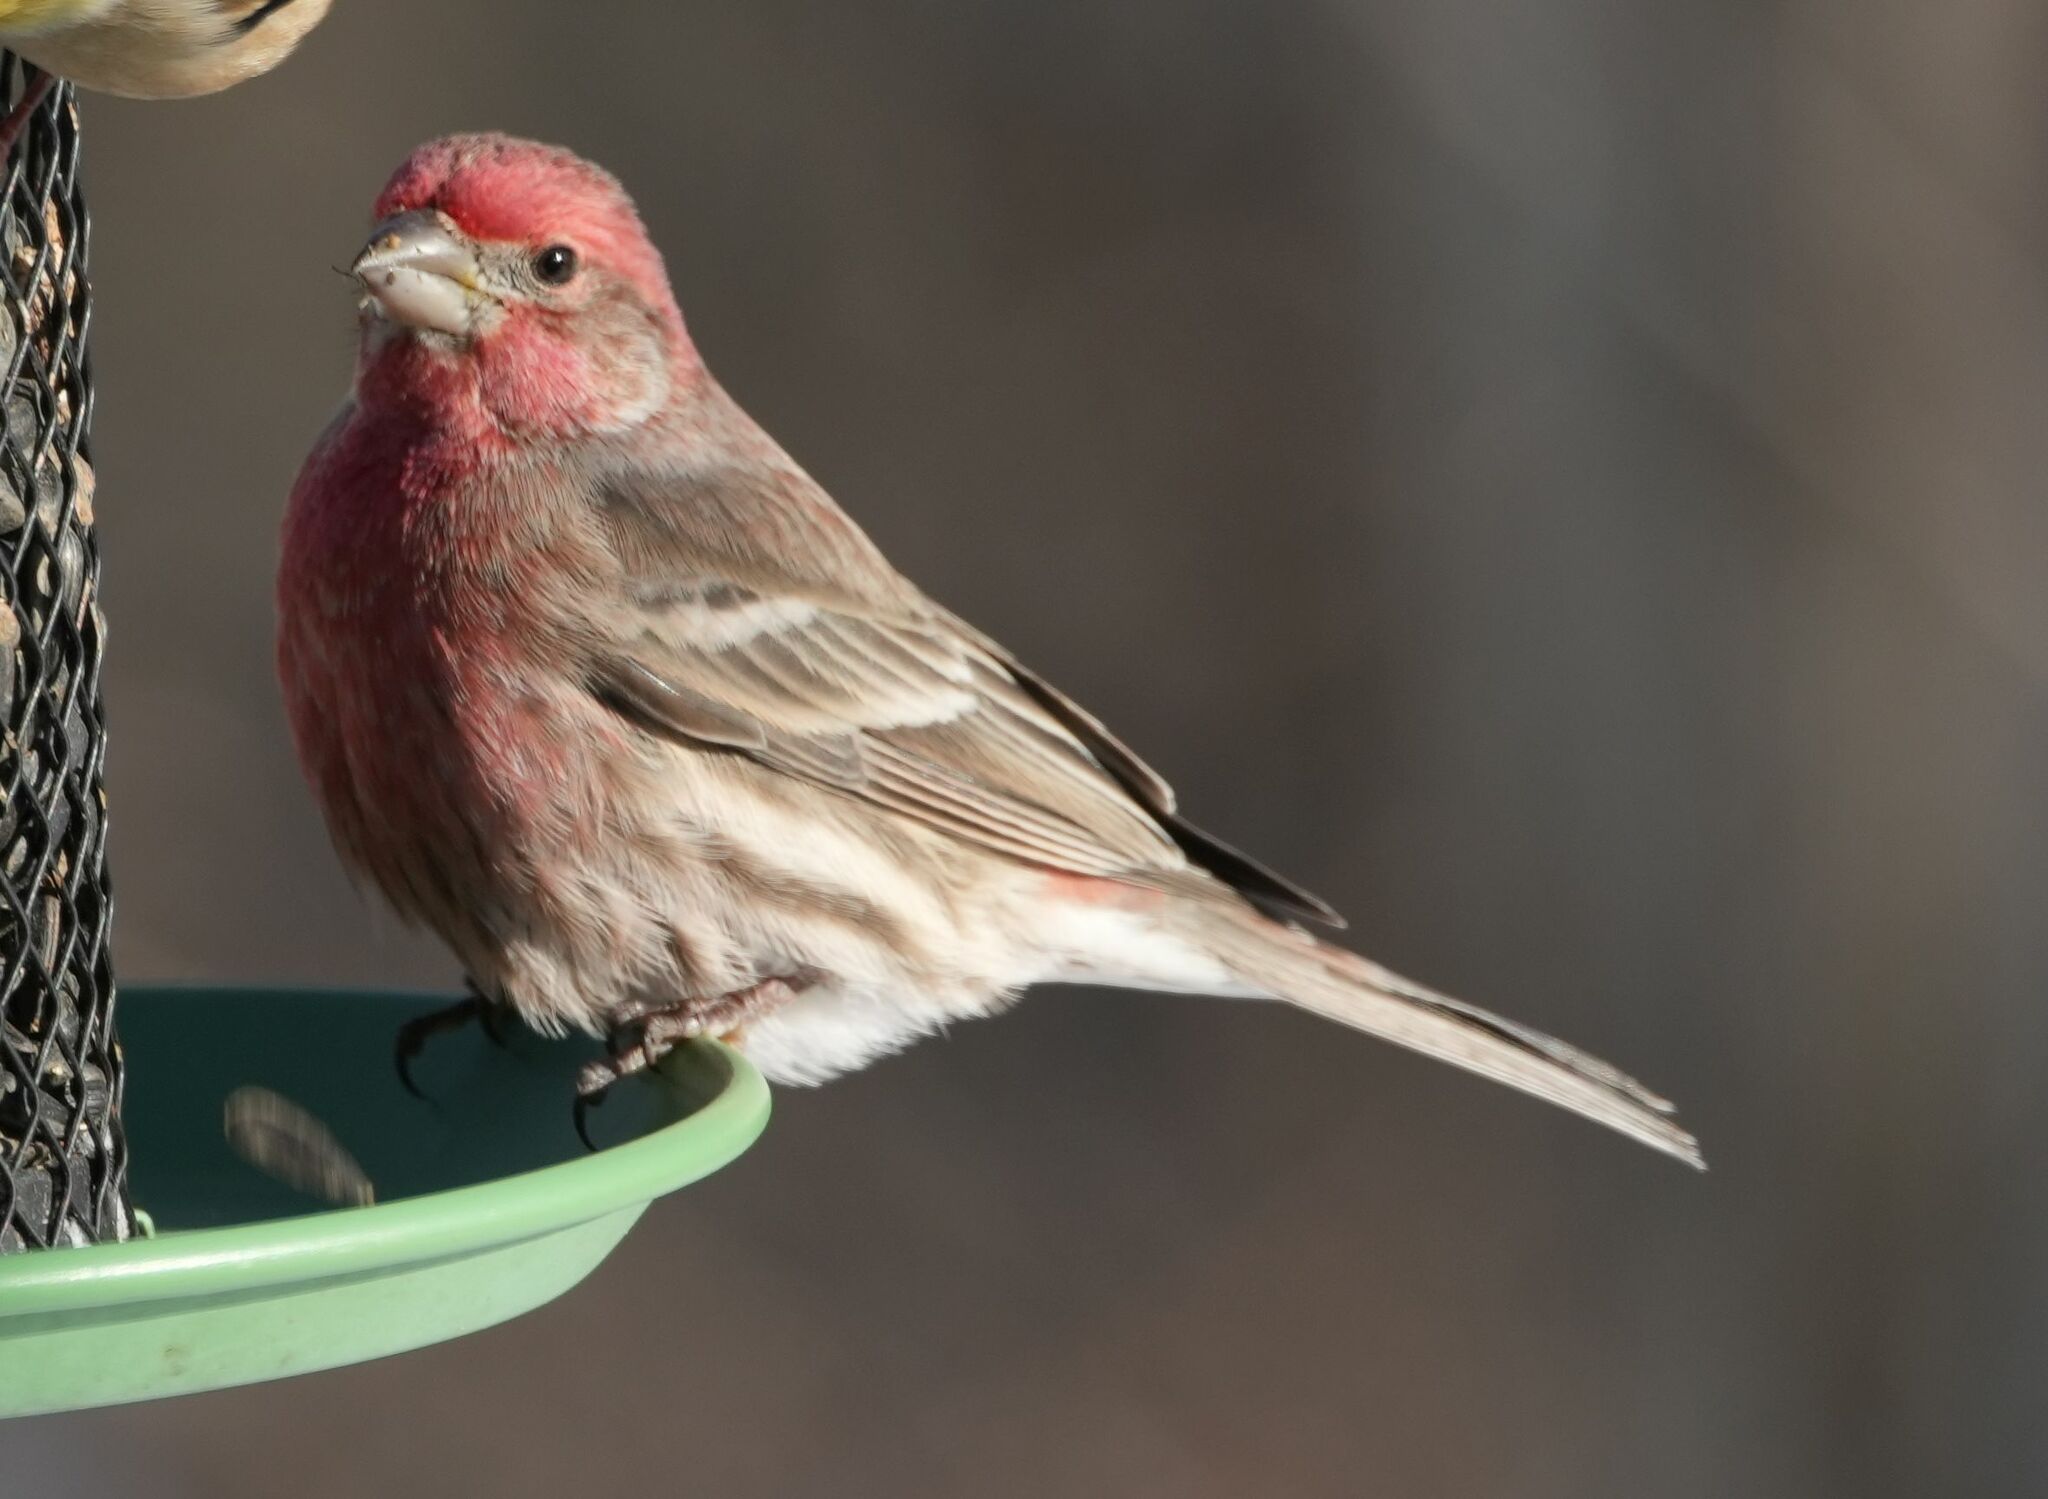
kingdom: Animalia
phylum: Chordata
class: Aves
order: Passeriformes
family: Fringillidae
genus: Haemorhous
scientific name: Haemorhous mexicanus
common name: House finch
